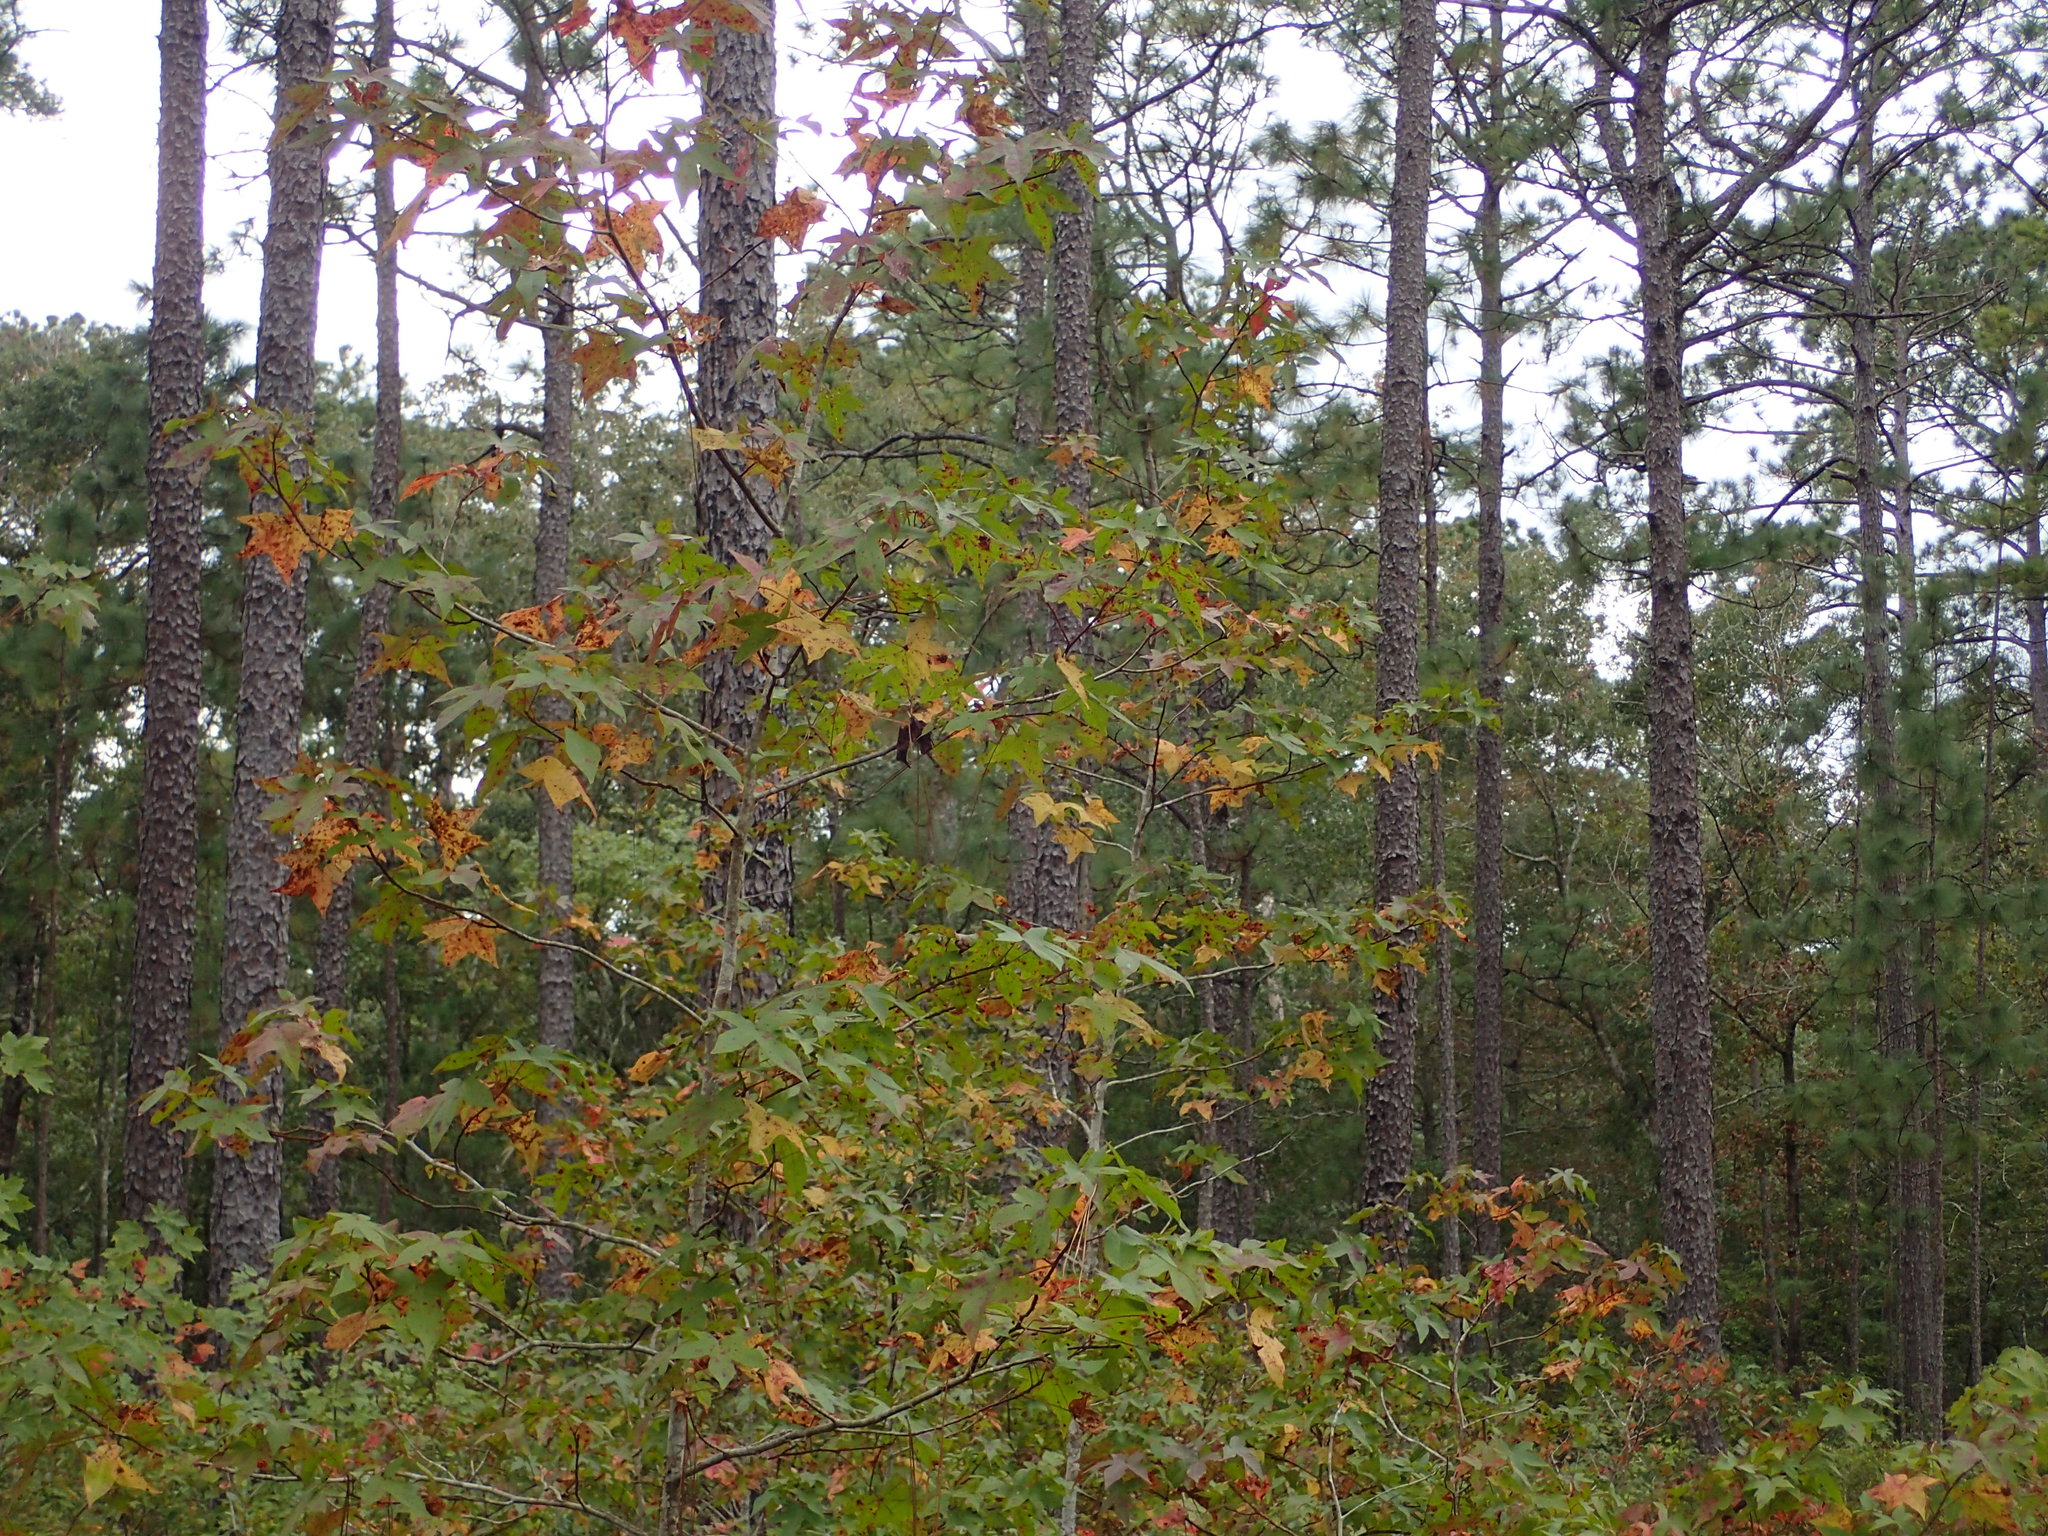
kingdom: Plantae
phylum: Tracheophyta
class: Magnoliopsida
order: Saxifragales
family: Altingiaceae
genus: Liquidambar
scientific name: Liquidambar styraciflua
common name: Sweet gum
